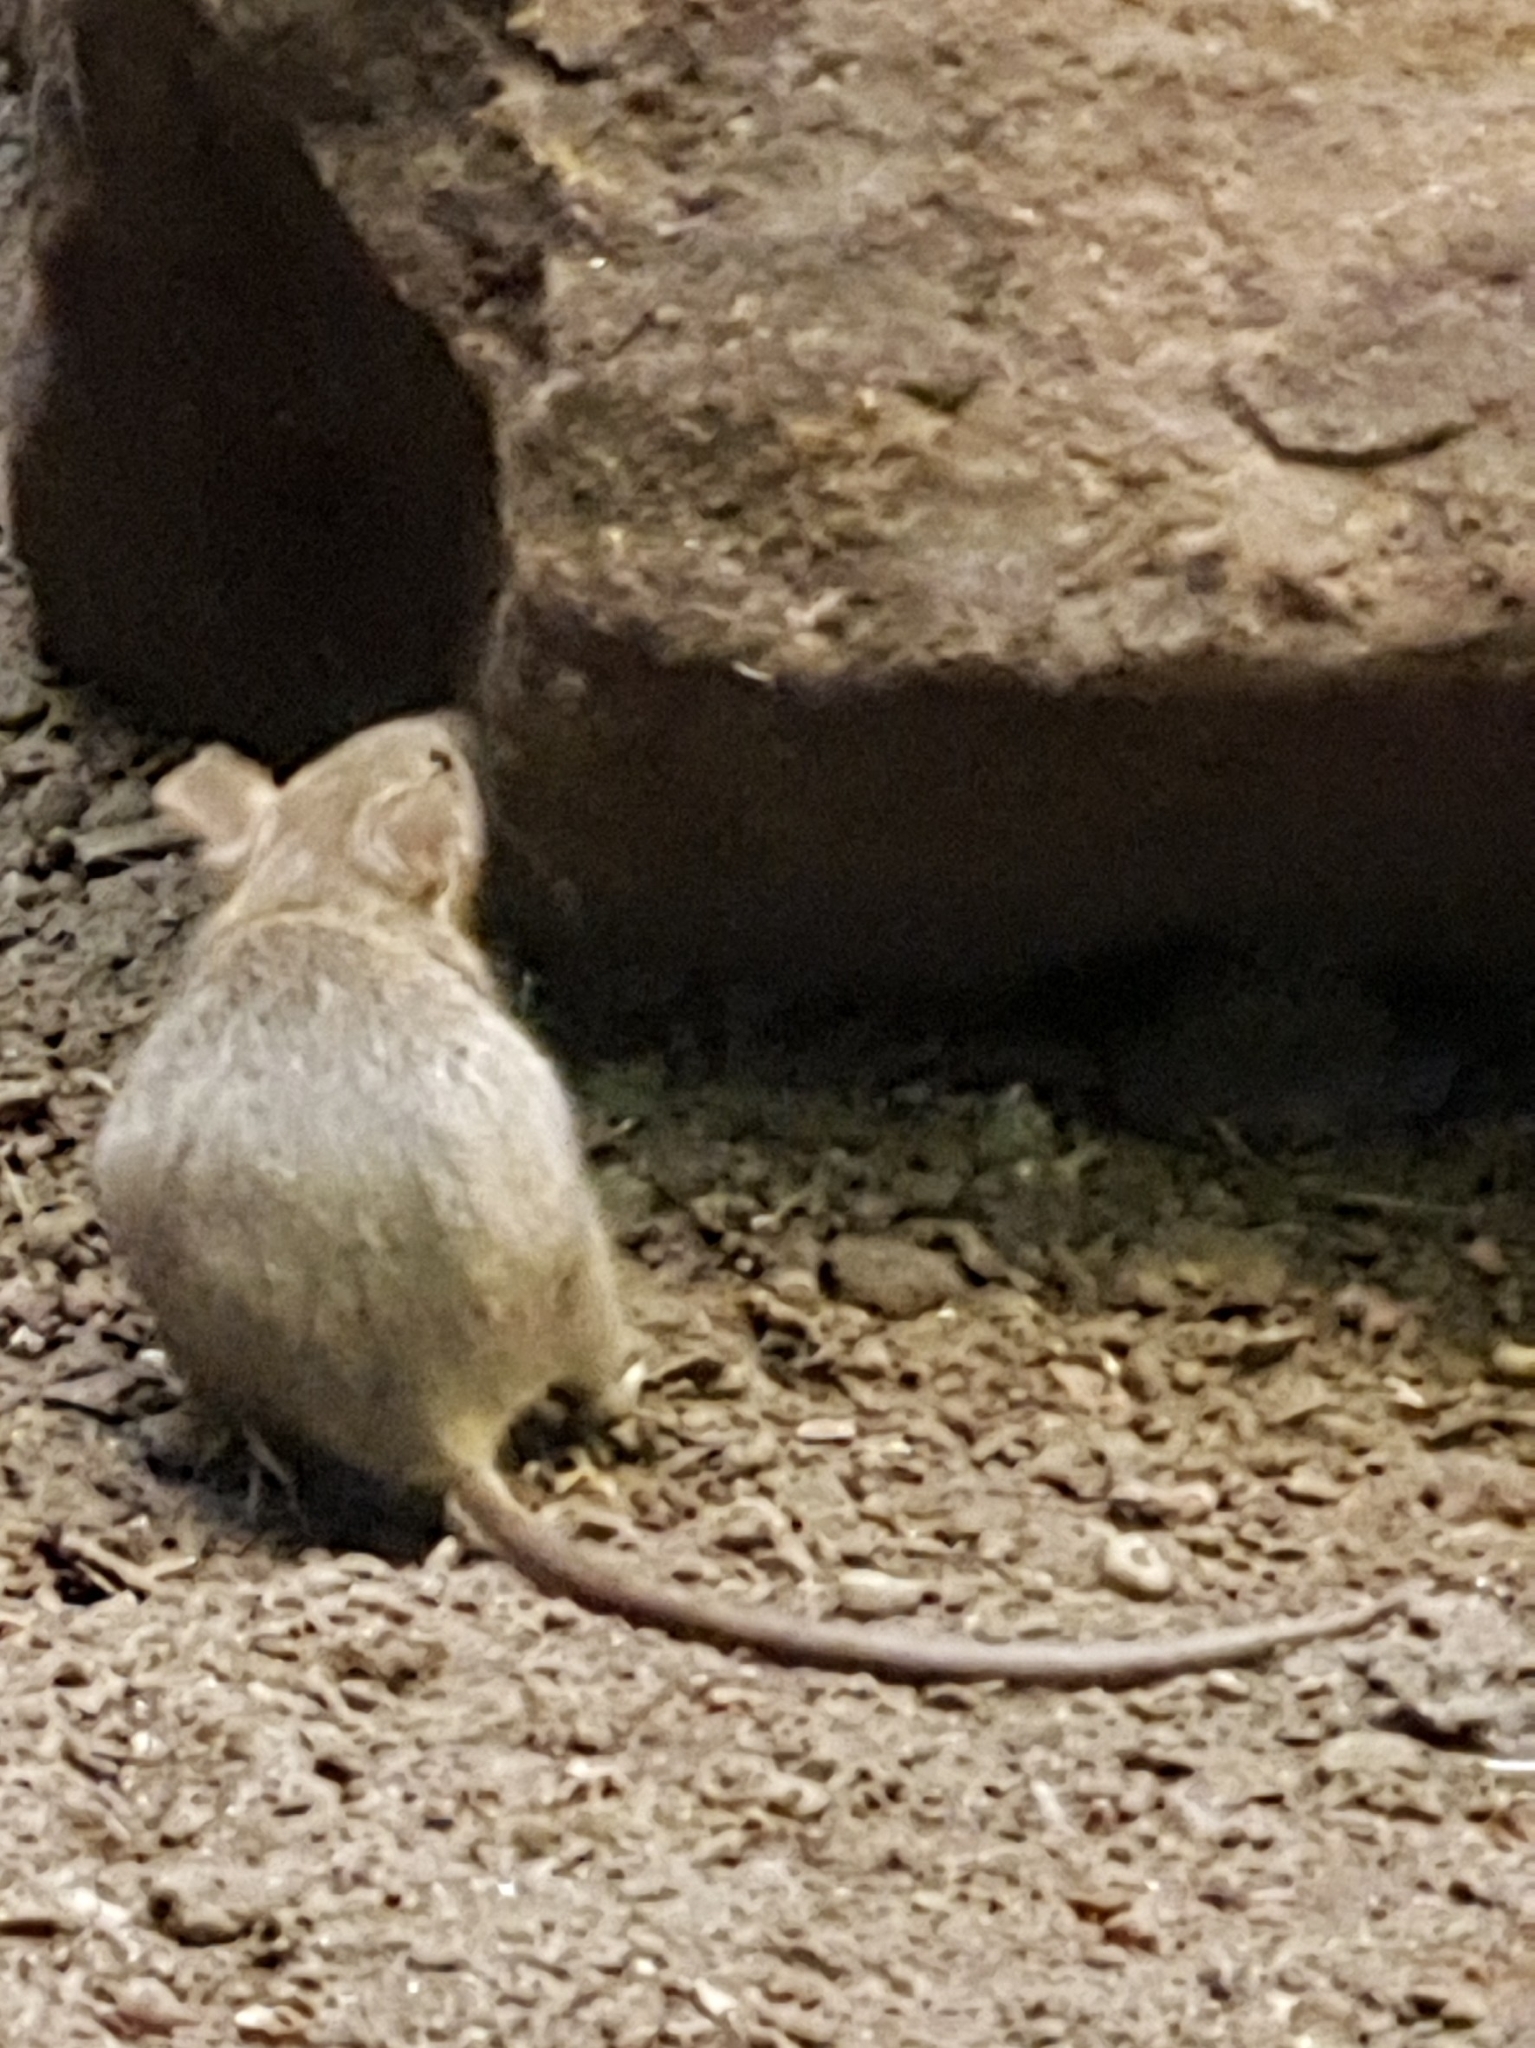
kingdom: Animalia
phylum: Chordata
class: Mammalia
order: Rodentia
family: Muridae
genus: Mus
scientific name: Mus musculus
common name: House mouse
